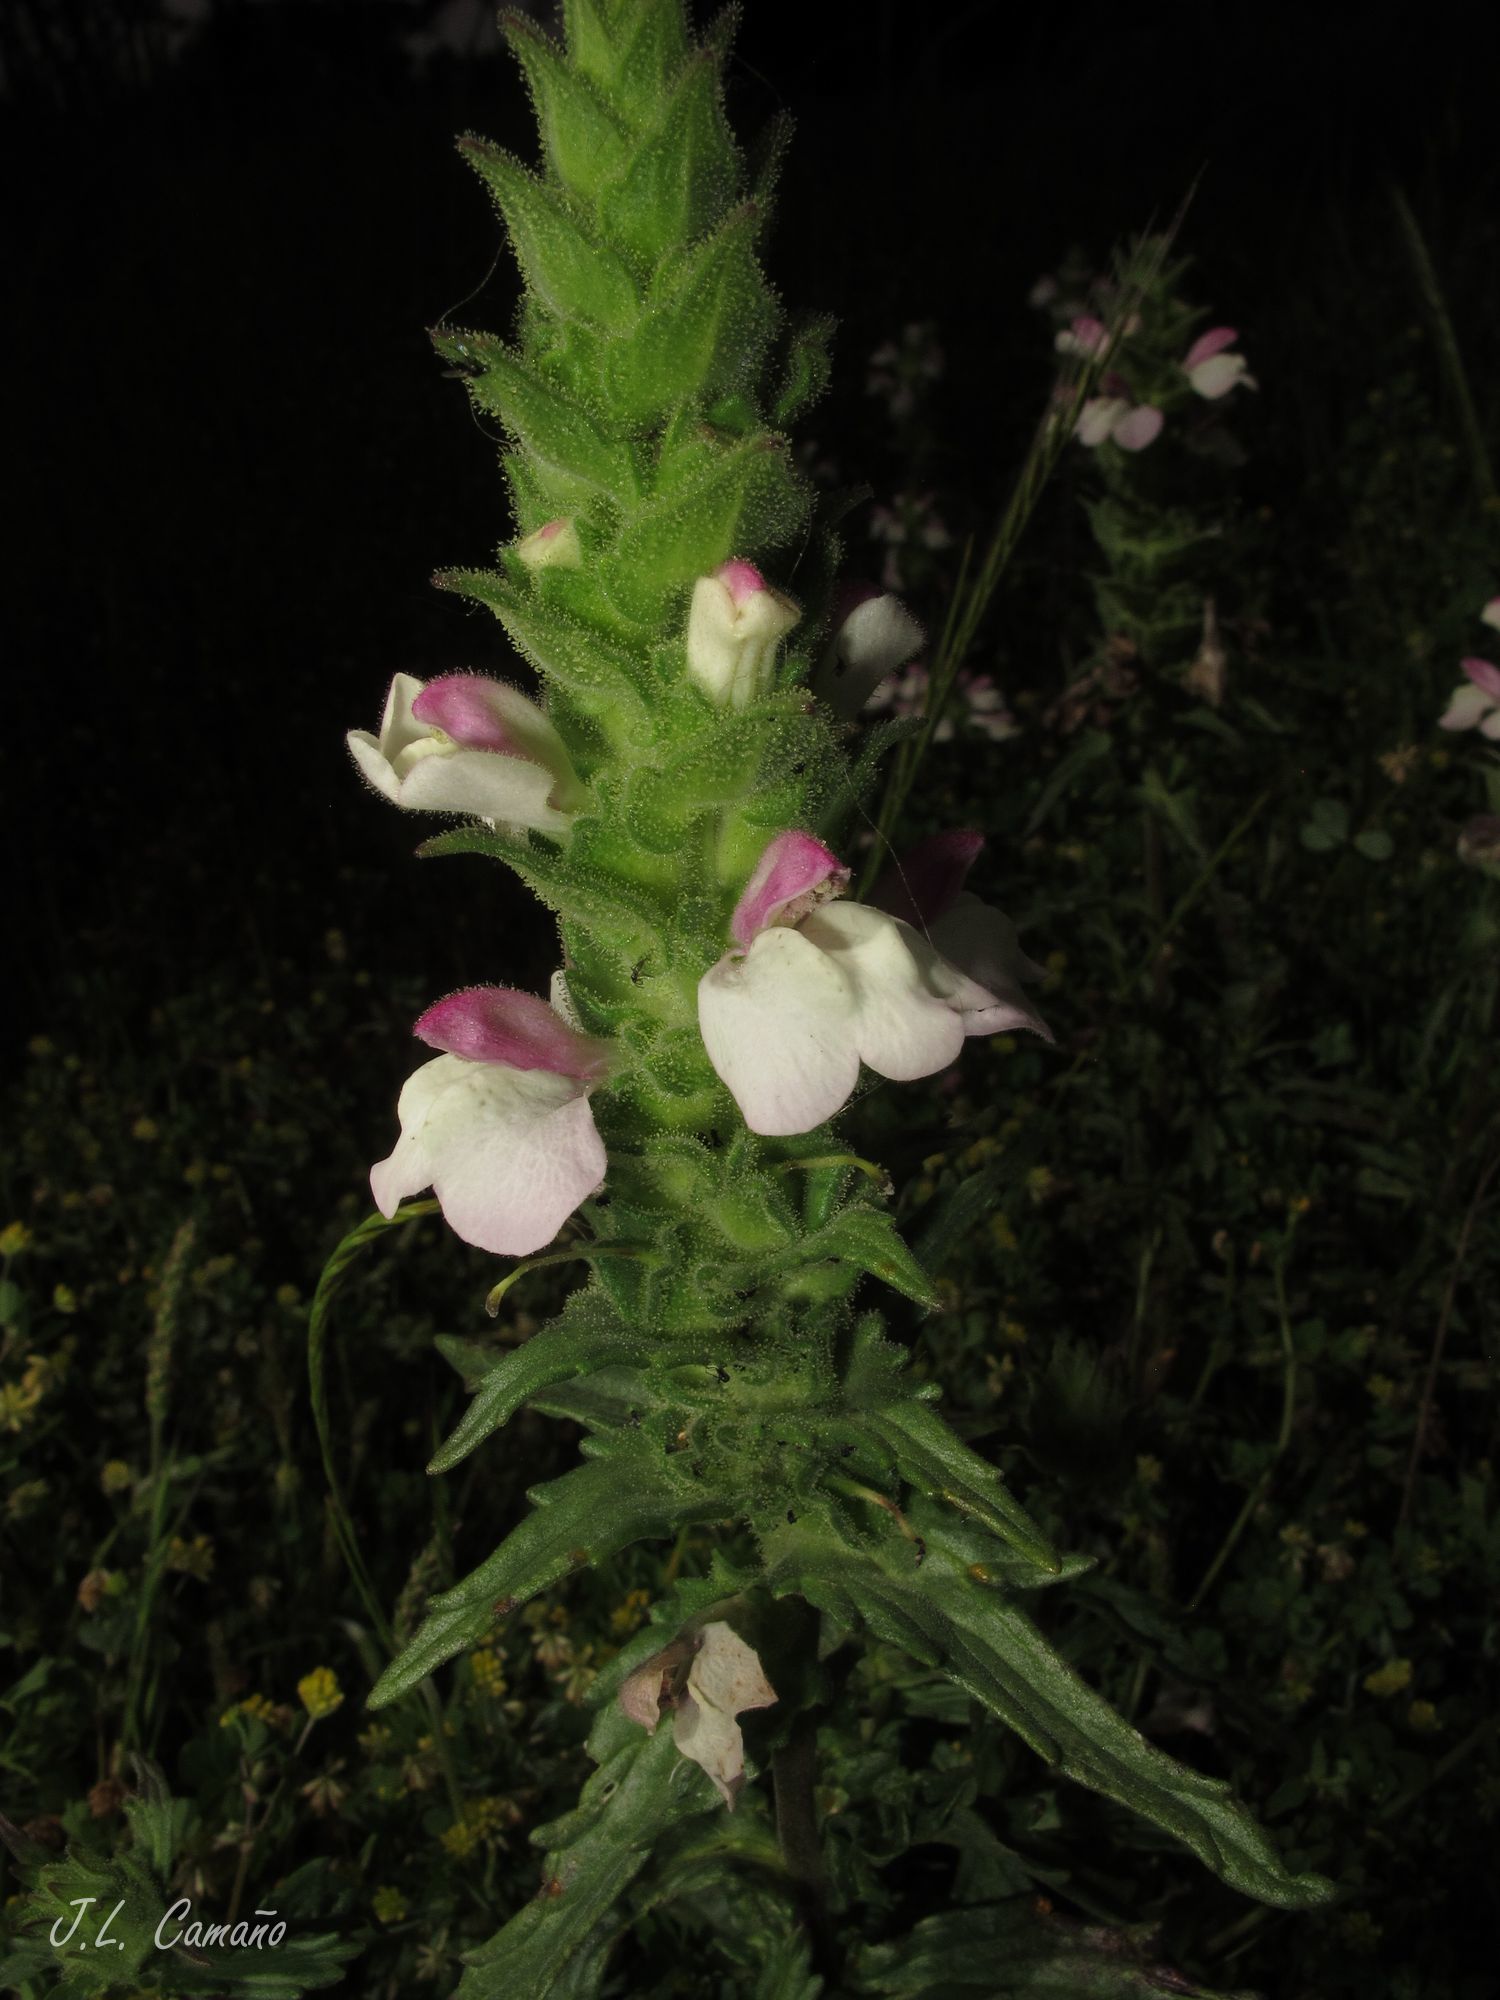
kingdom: Plantae
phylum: Tracheophyta
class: Magnoliopsida
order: Lamiales
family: Orobanchaceae
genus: Bellardia
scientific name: Bellardia trixago
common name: Mediterranean lineseed
